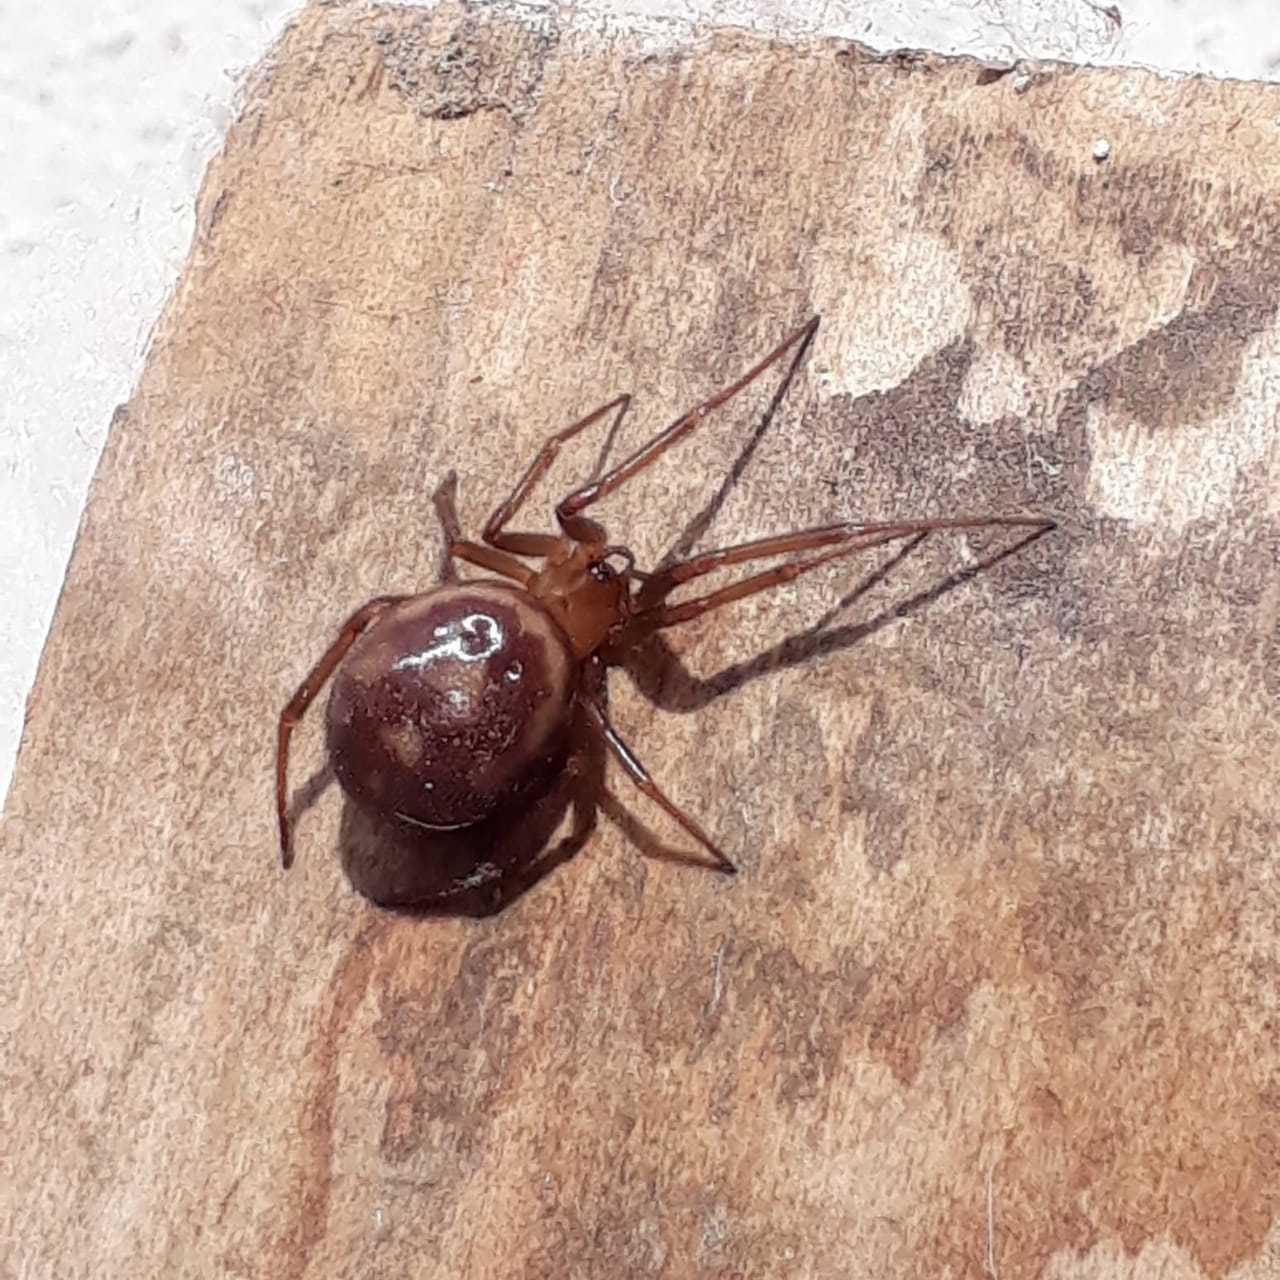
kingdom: Animalia
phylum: Arthropoda
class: Arachnida
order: Araneae
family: Theridiidae
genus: Steatoda
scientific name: Steatoda grossa
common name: False black widow
